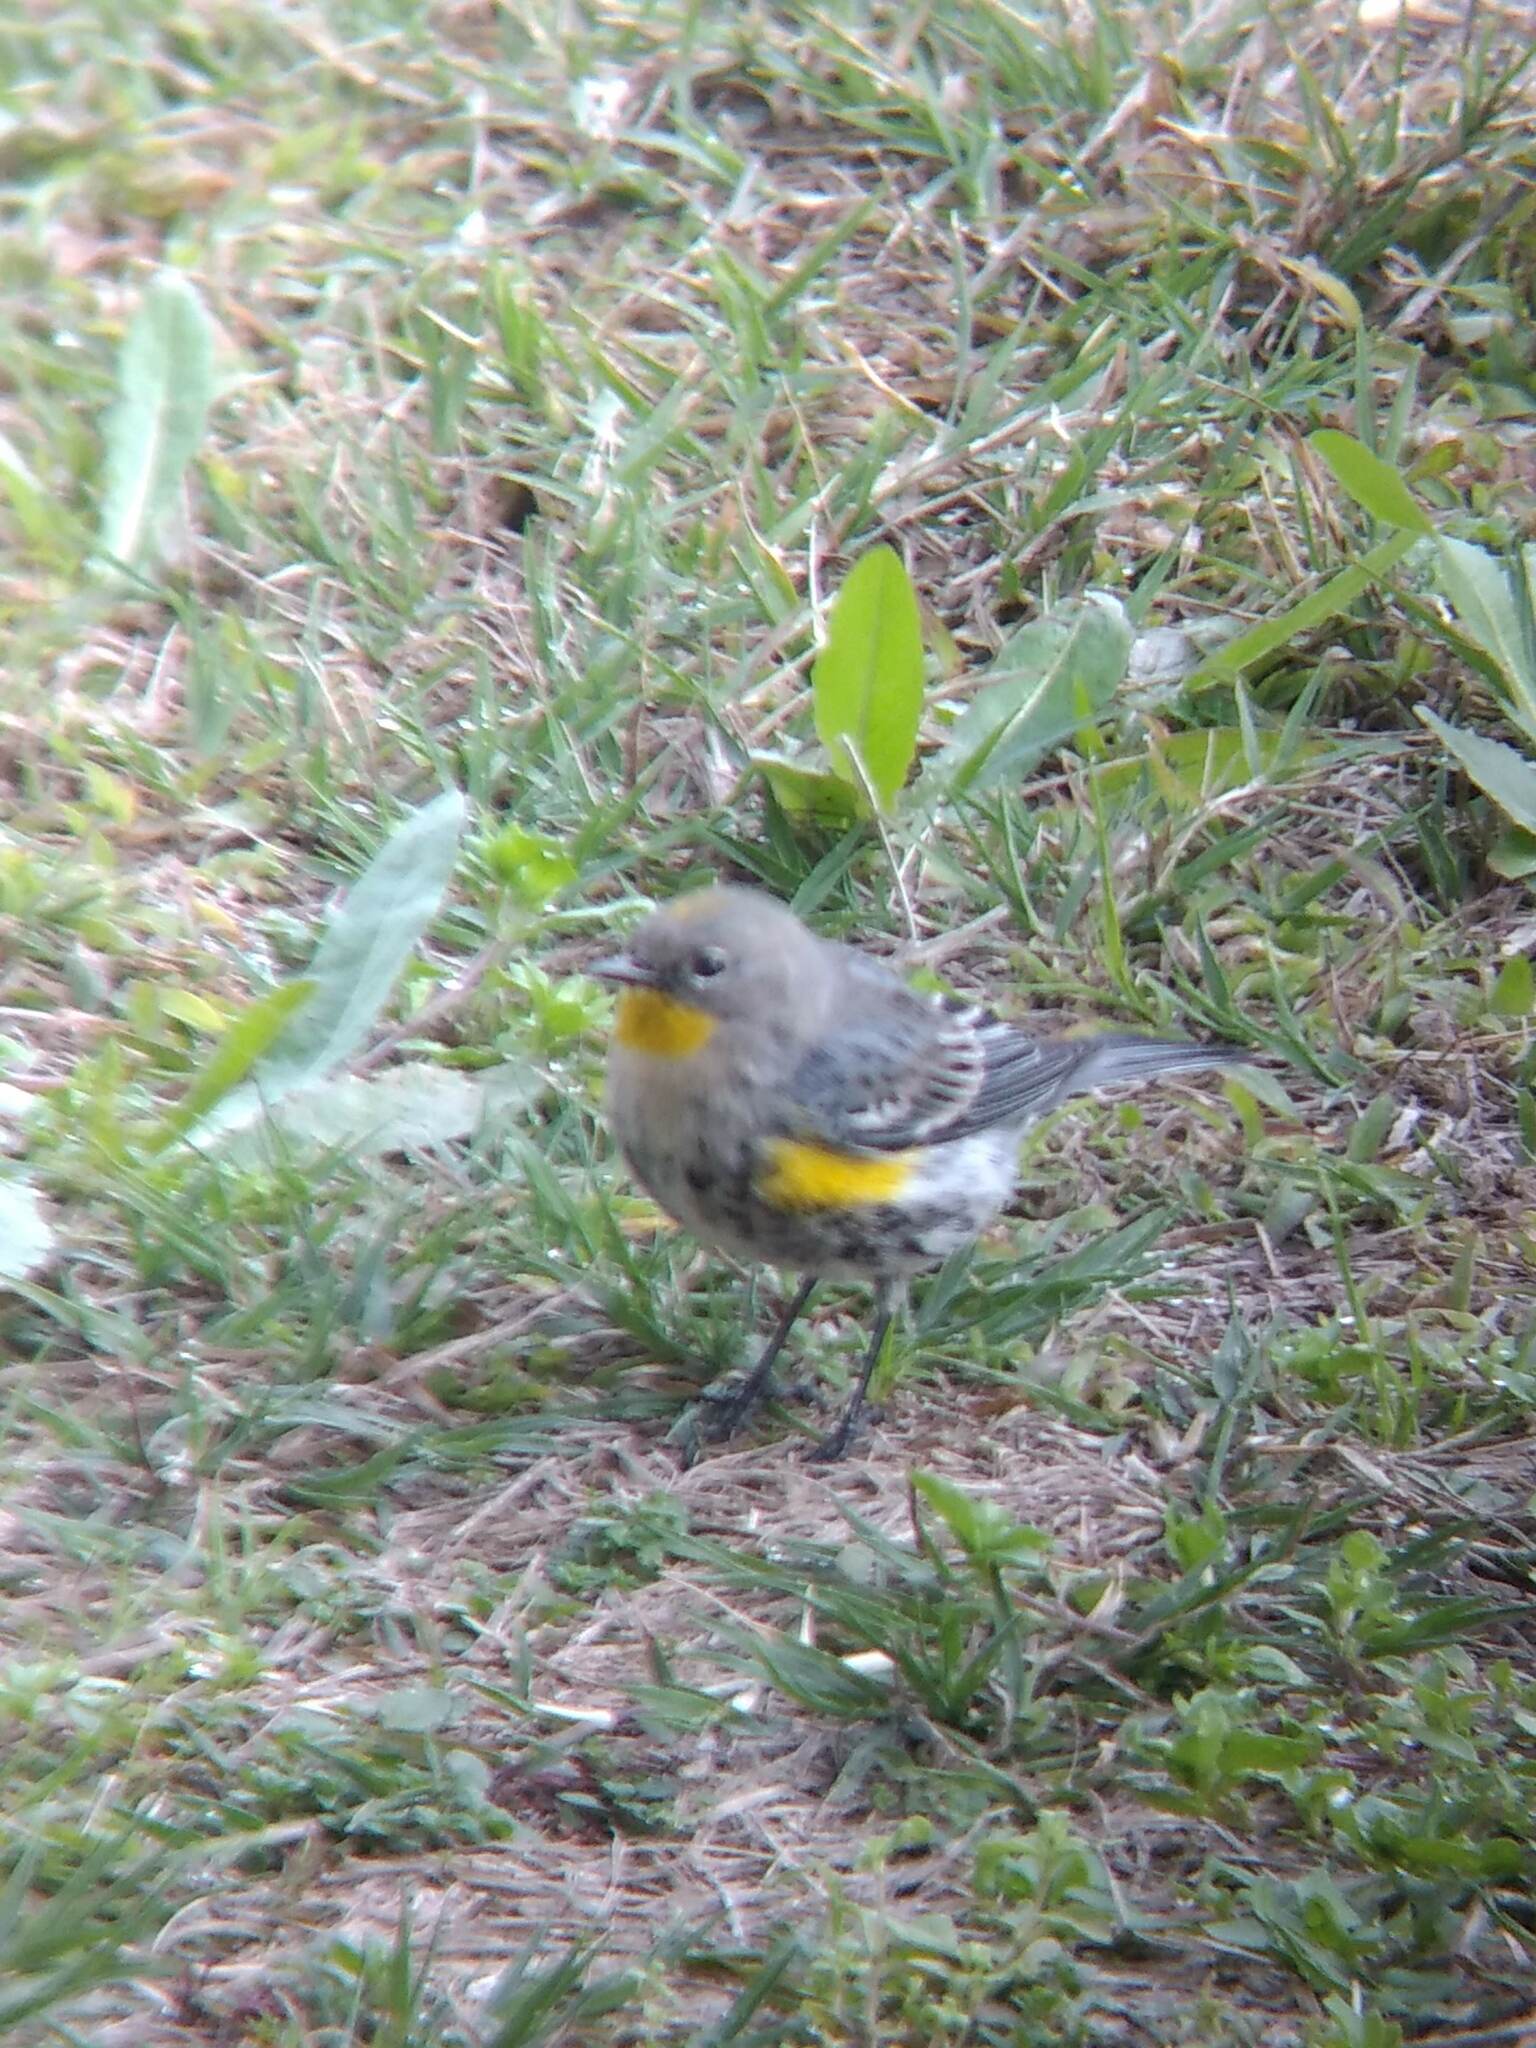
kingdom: Animalia
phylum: Chordata
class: Aves
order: Passeriformes
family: Parulidae
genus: Setophaga
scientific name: Setophaga coronata
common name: Myrtle warbler
